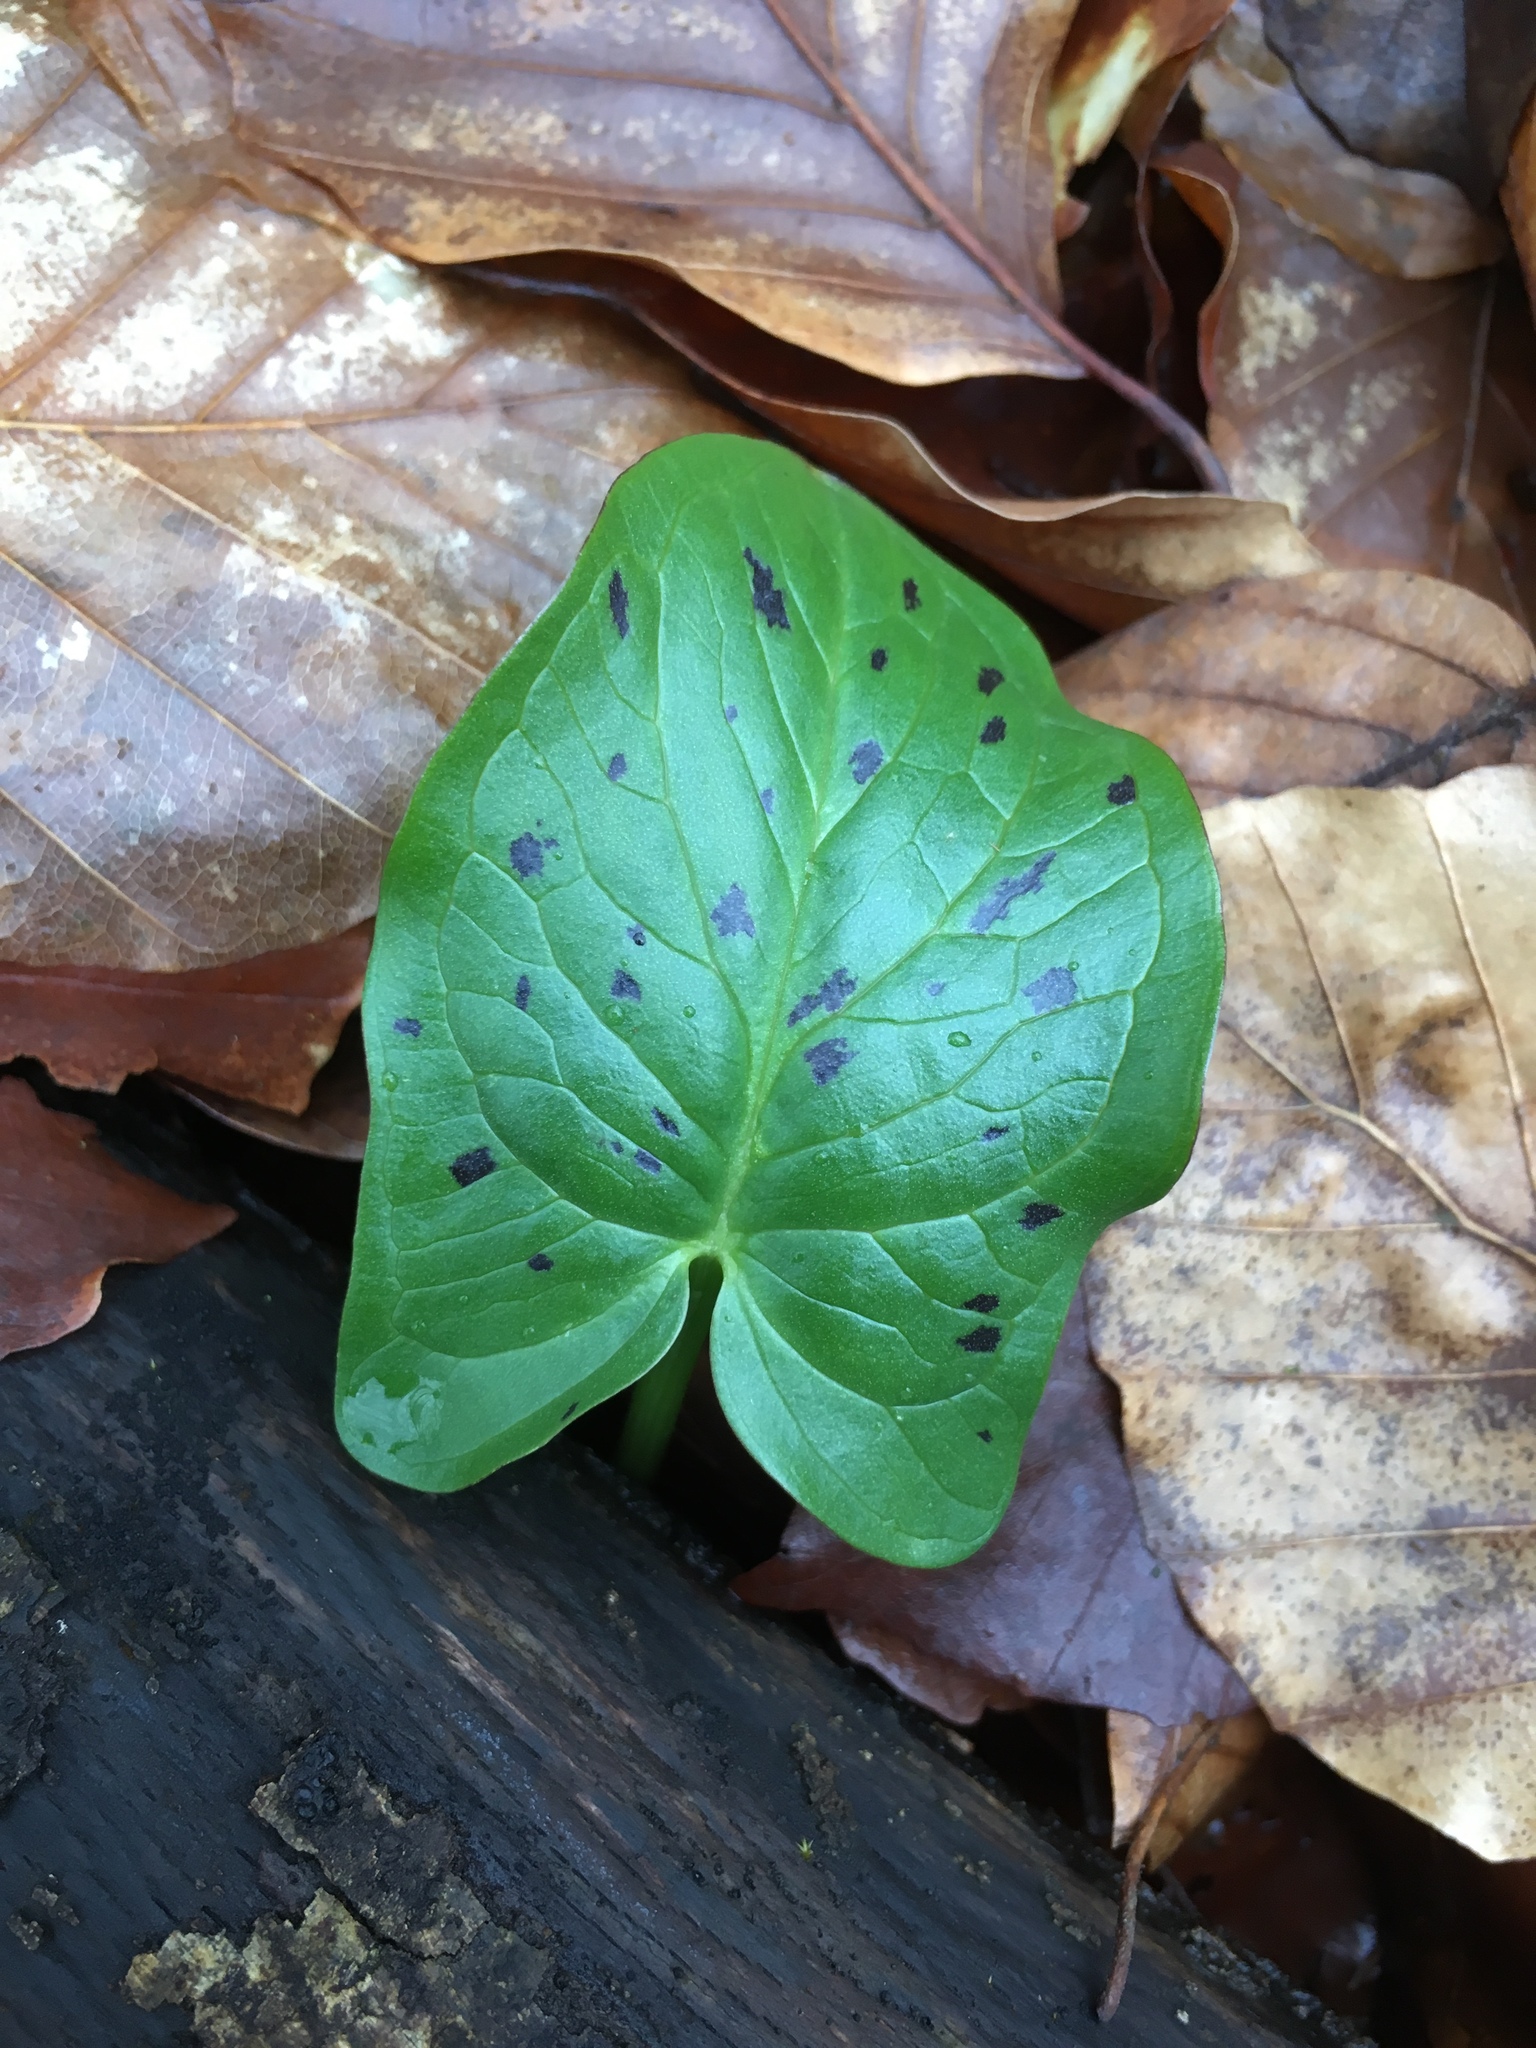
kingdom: Plantae
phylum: Tracheophyta
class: Liliopsida
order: Alismatales
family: Araceae
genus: Arum
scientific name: Arum maculatum
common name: Lords-and-ladies
